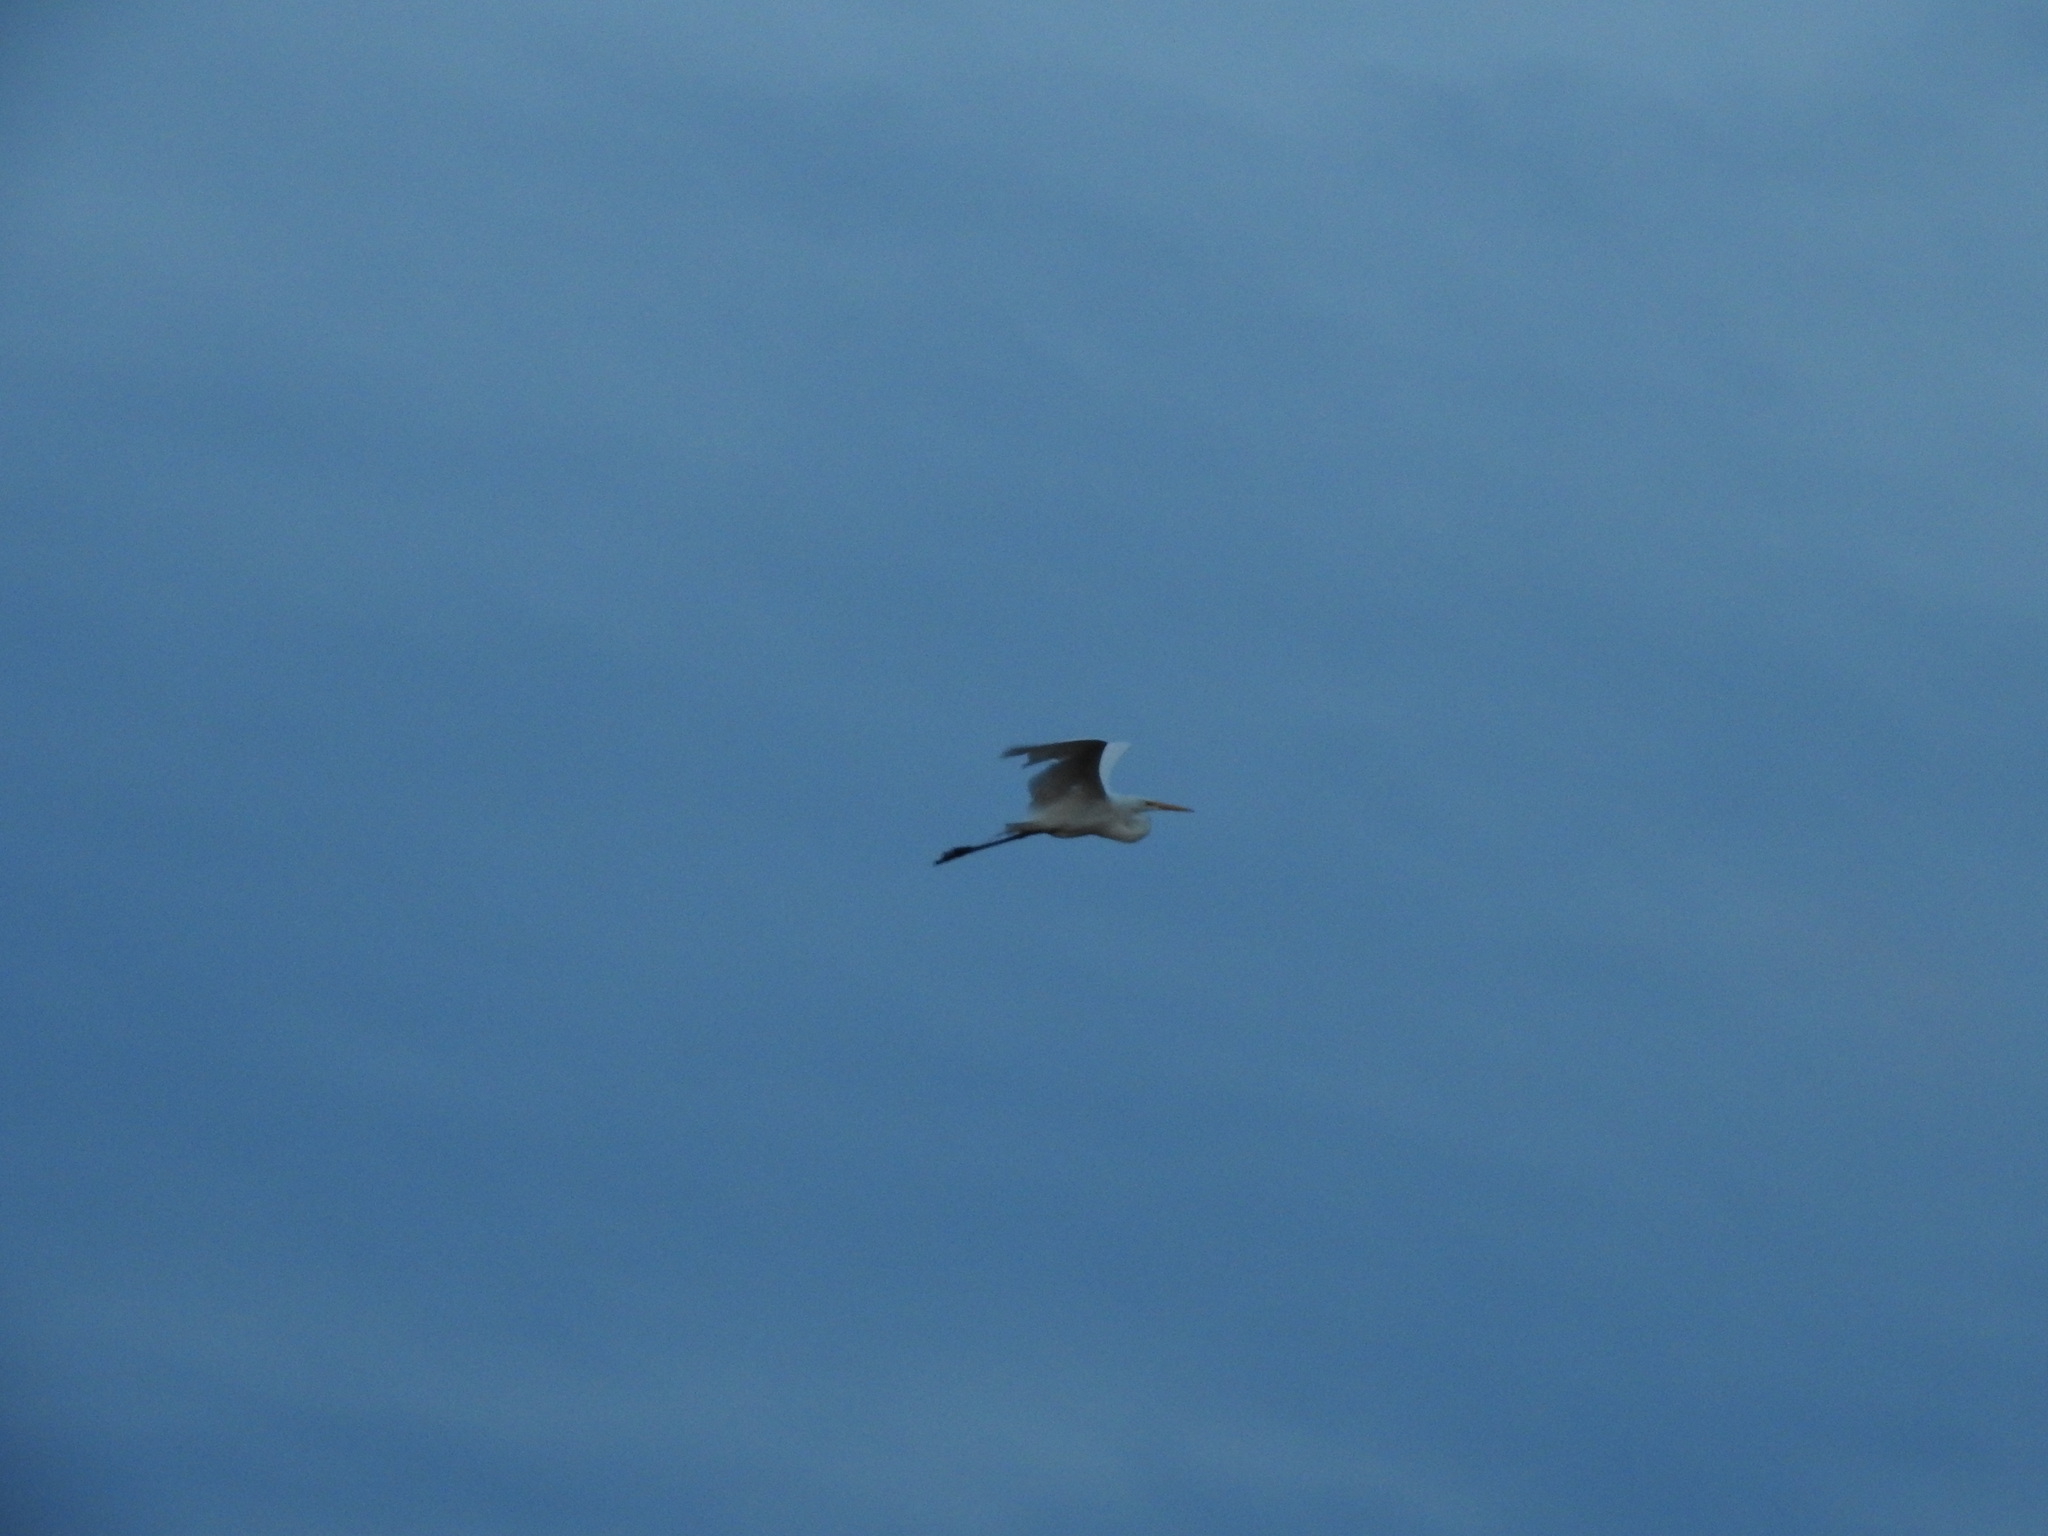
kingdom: Animalia
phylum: Chordata
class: Aves
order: Pelecaniformes
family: Ardeidae
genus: Ardea
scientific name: Ardea alba
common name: Great egret
